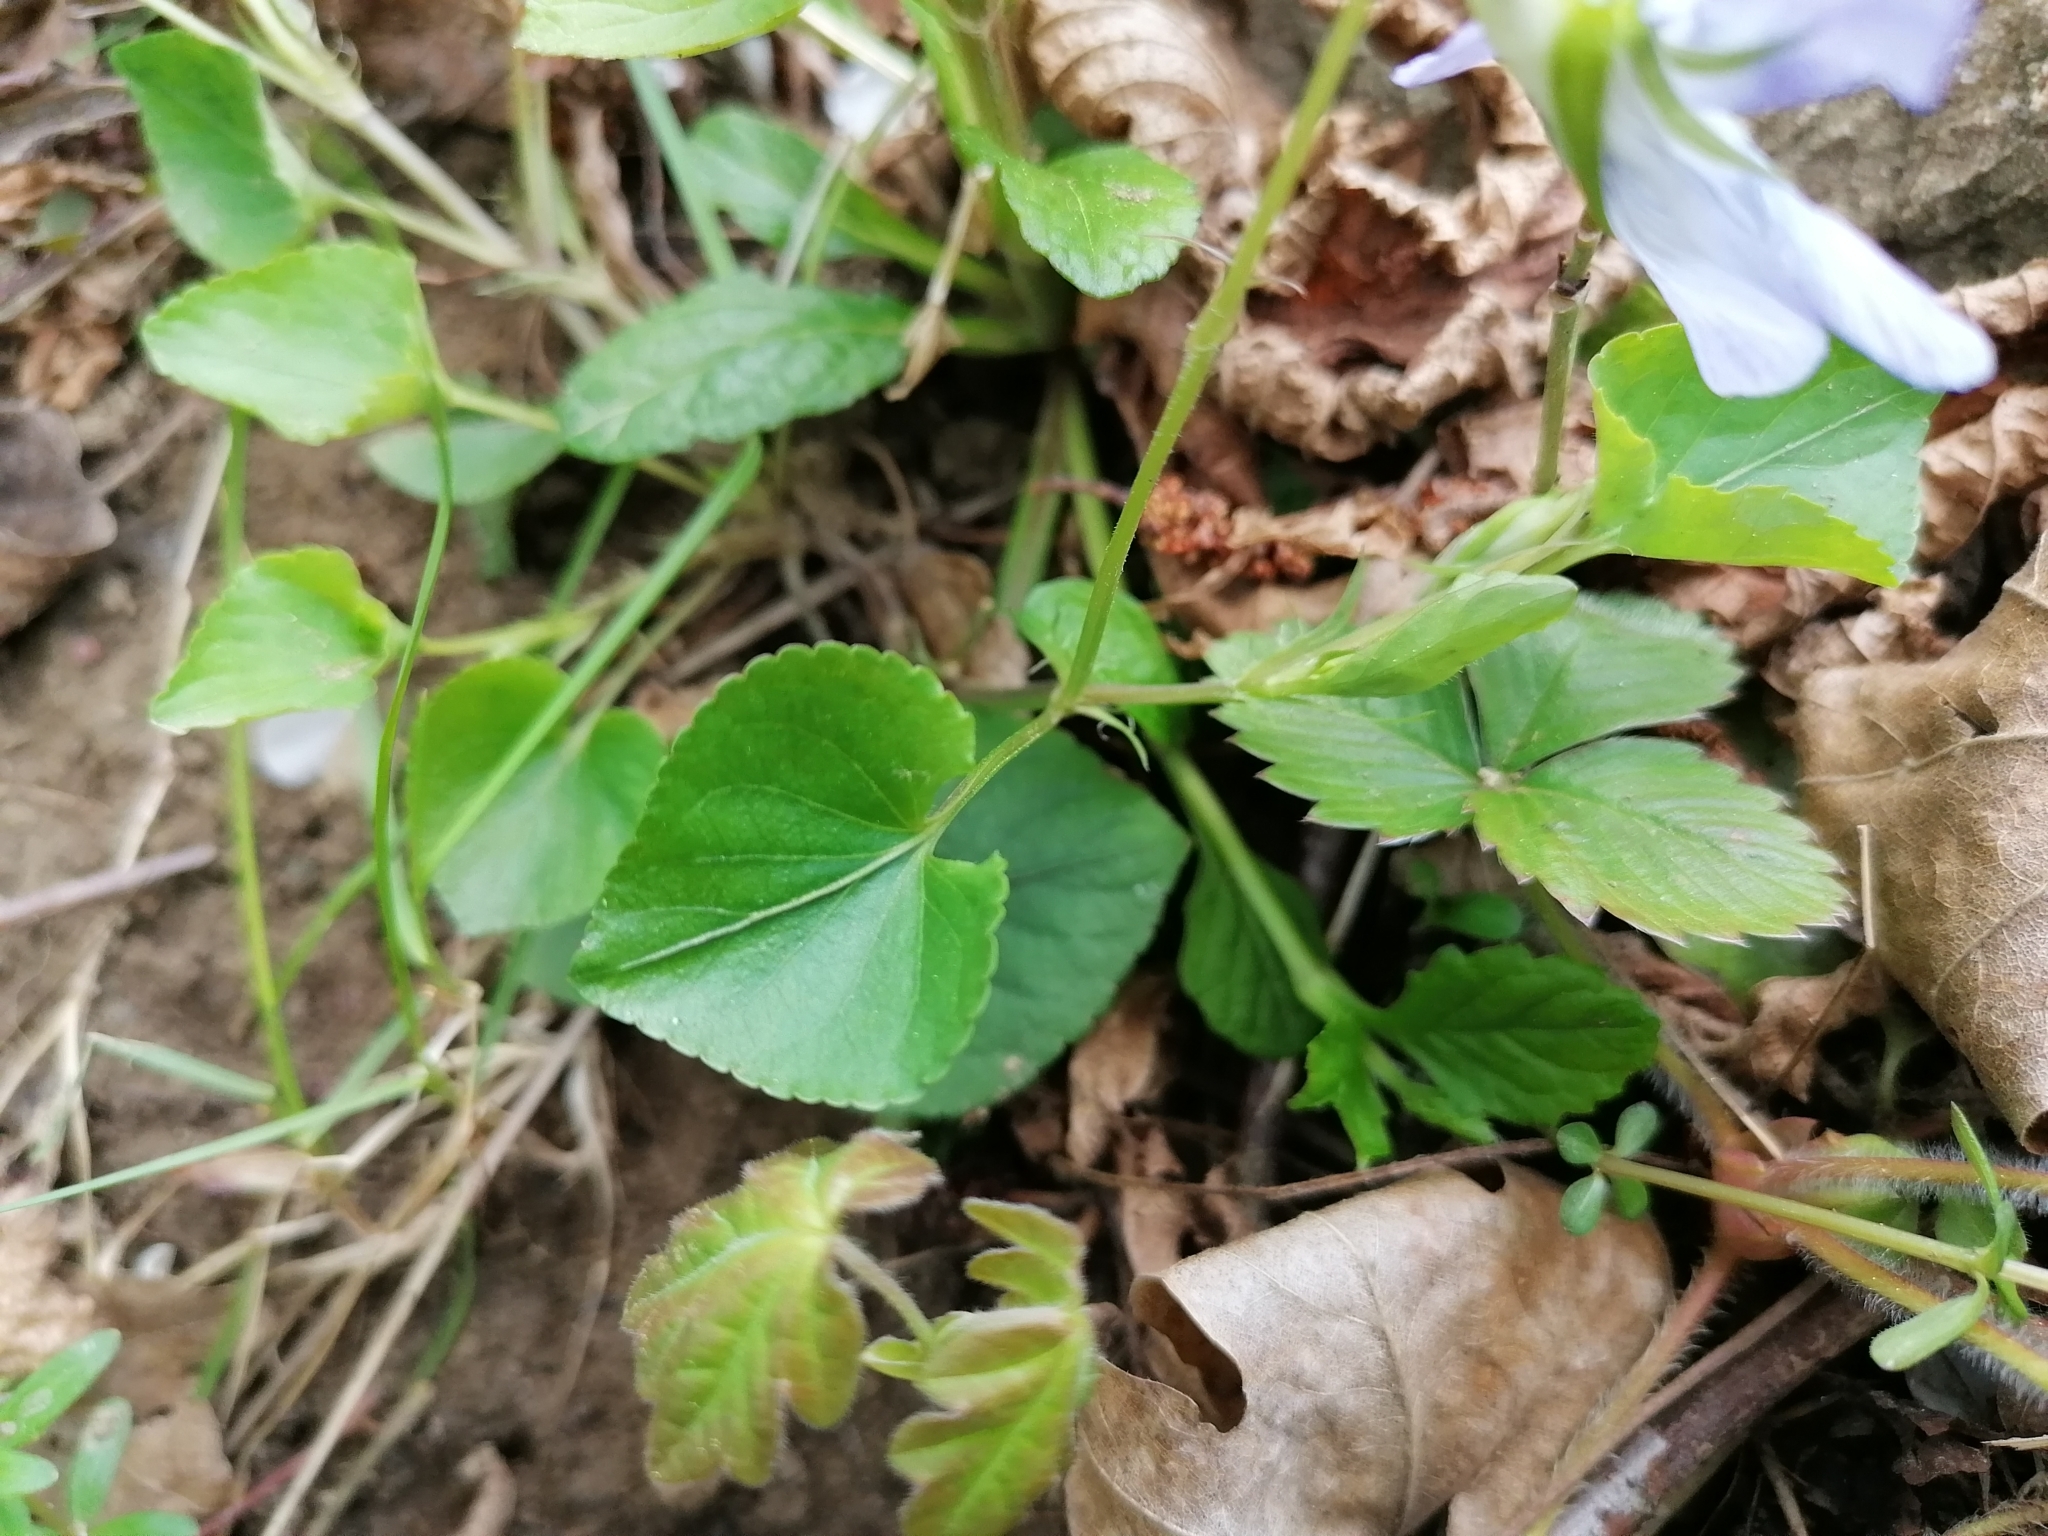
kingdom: Plantae
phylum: Tracheophyta
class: Magnoliopsida
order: Malpighiales
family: Violaceae
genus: Viola
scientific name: Viola riviniana
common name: Common dog-violet
